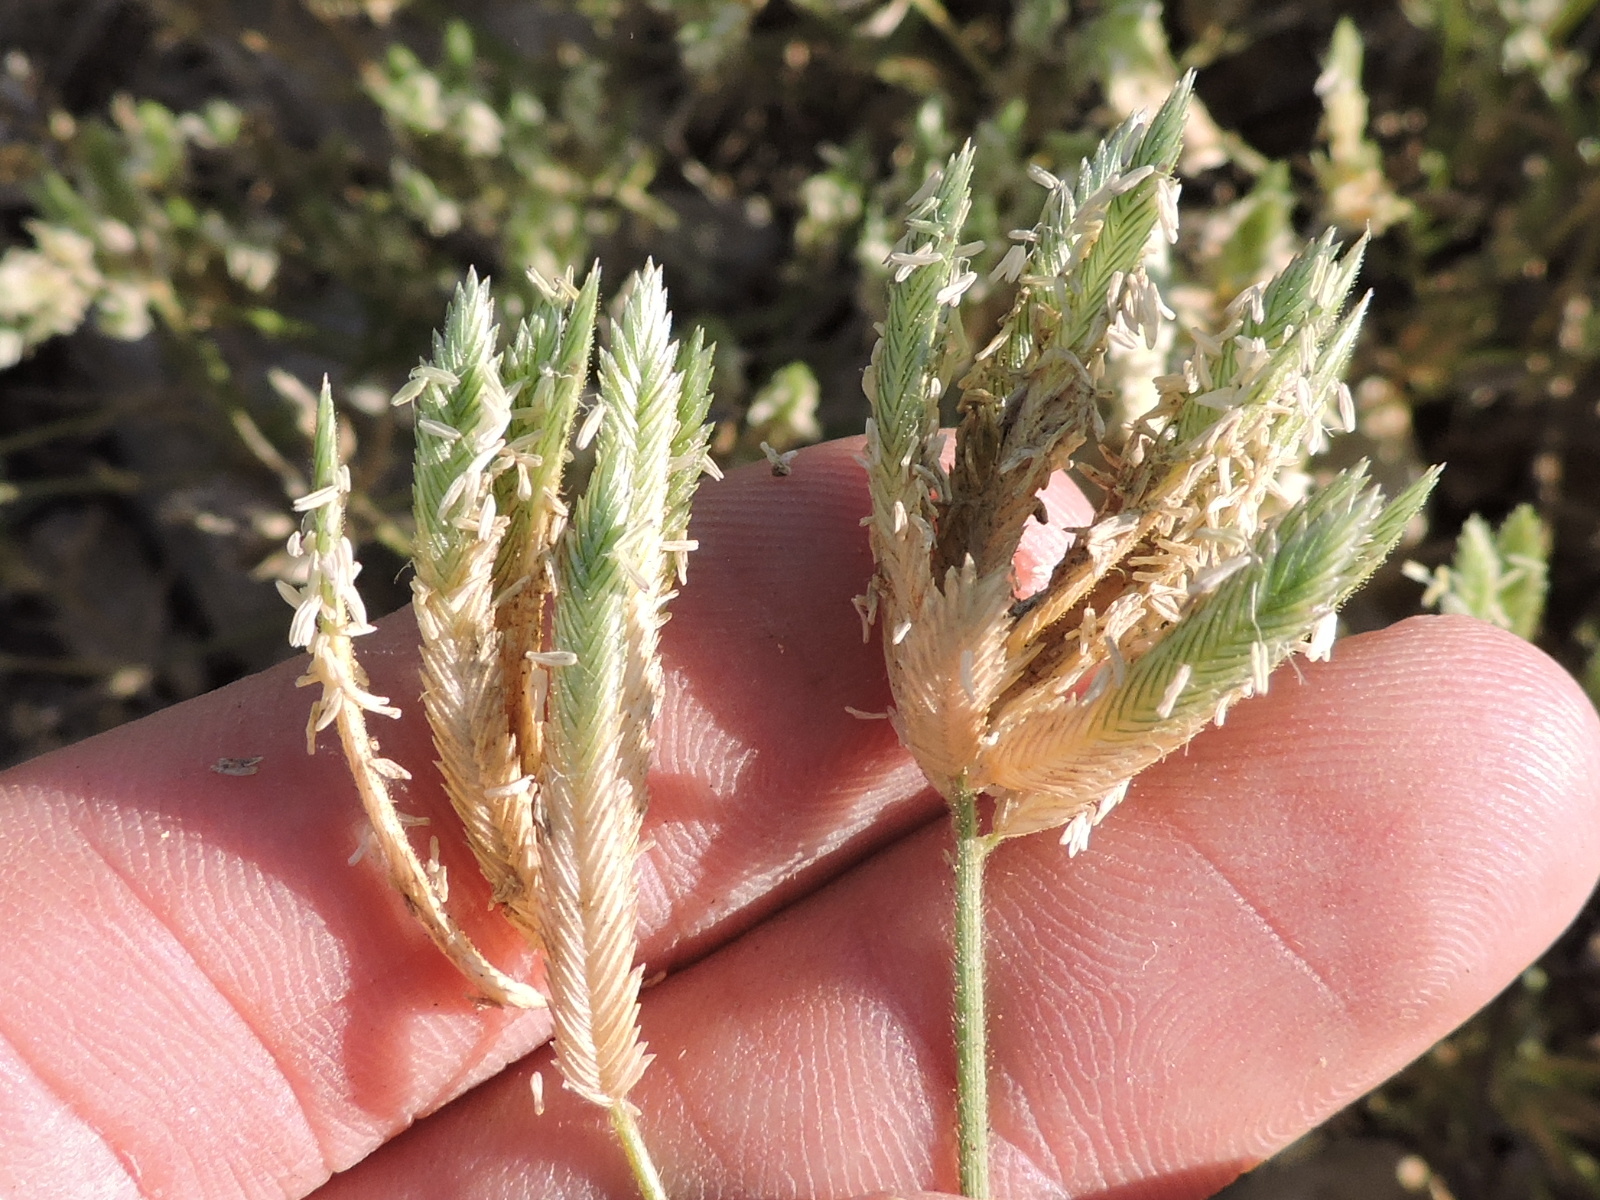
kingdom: Plantae
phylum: Tracheophyta
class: Liliopsida
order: Poales
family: Poaceae
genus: Eragrostis
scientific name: Eragrostis reptans
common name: Creeping love grass
